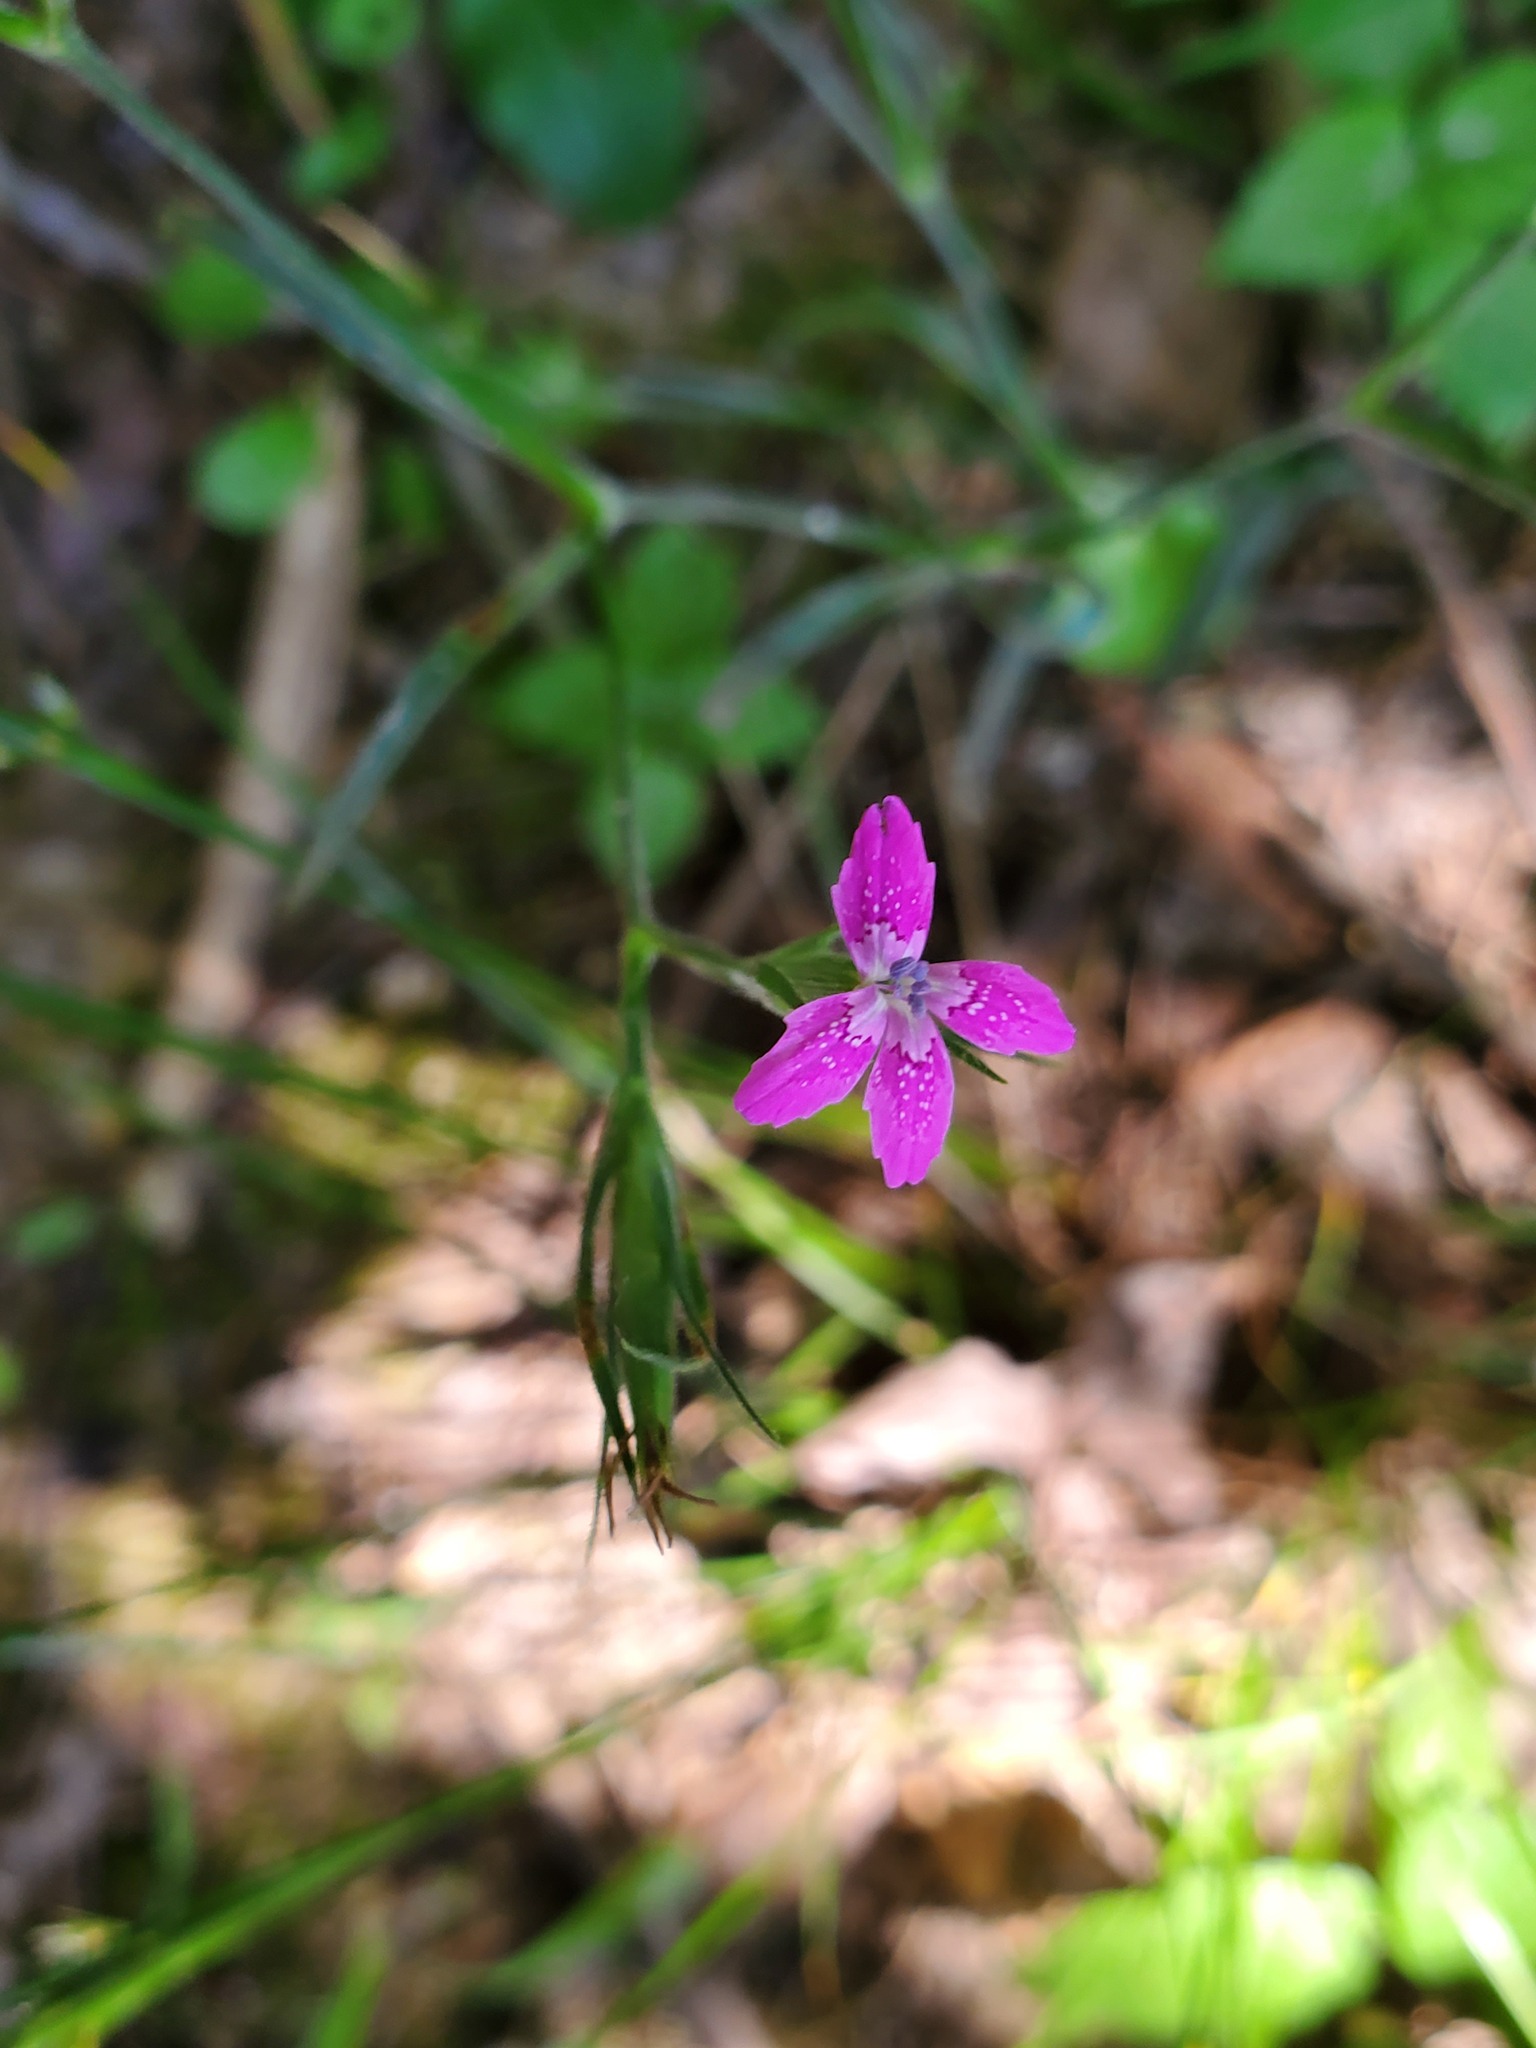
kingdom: Plantae
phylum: Tracheophyta
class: Magnoliopsida
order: Caryophyllales
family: Caryophyllaceae
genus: Dianthus
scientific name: Dianthus armeria
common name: Deptford pink
